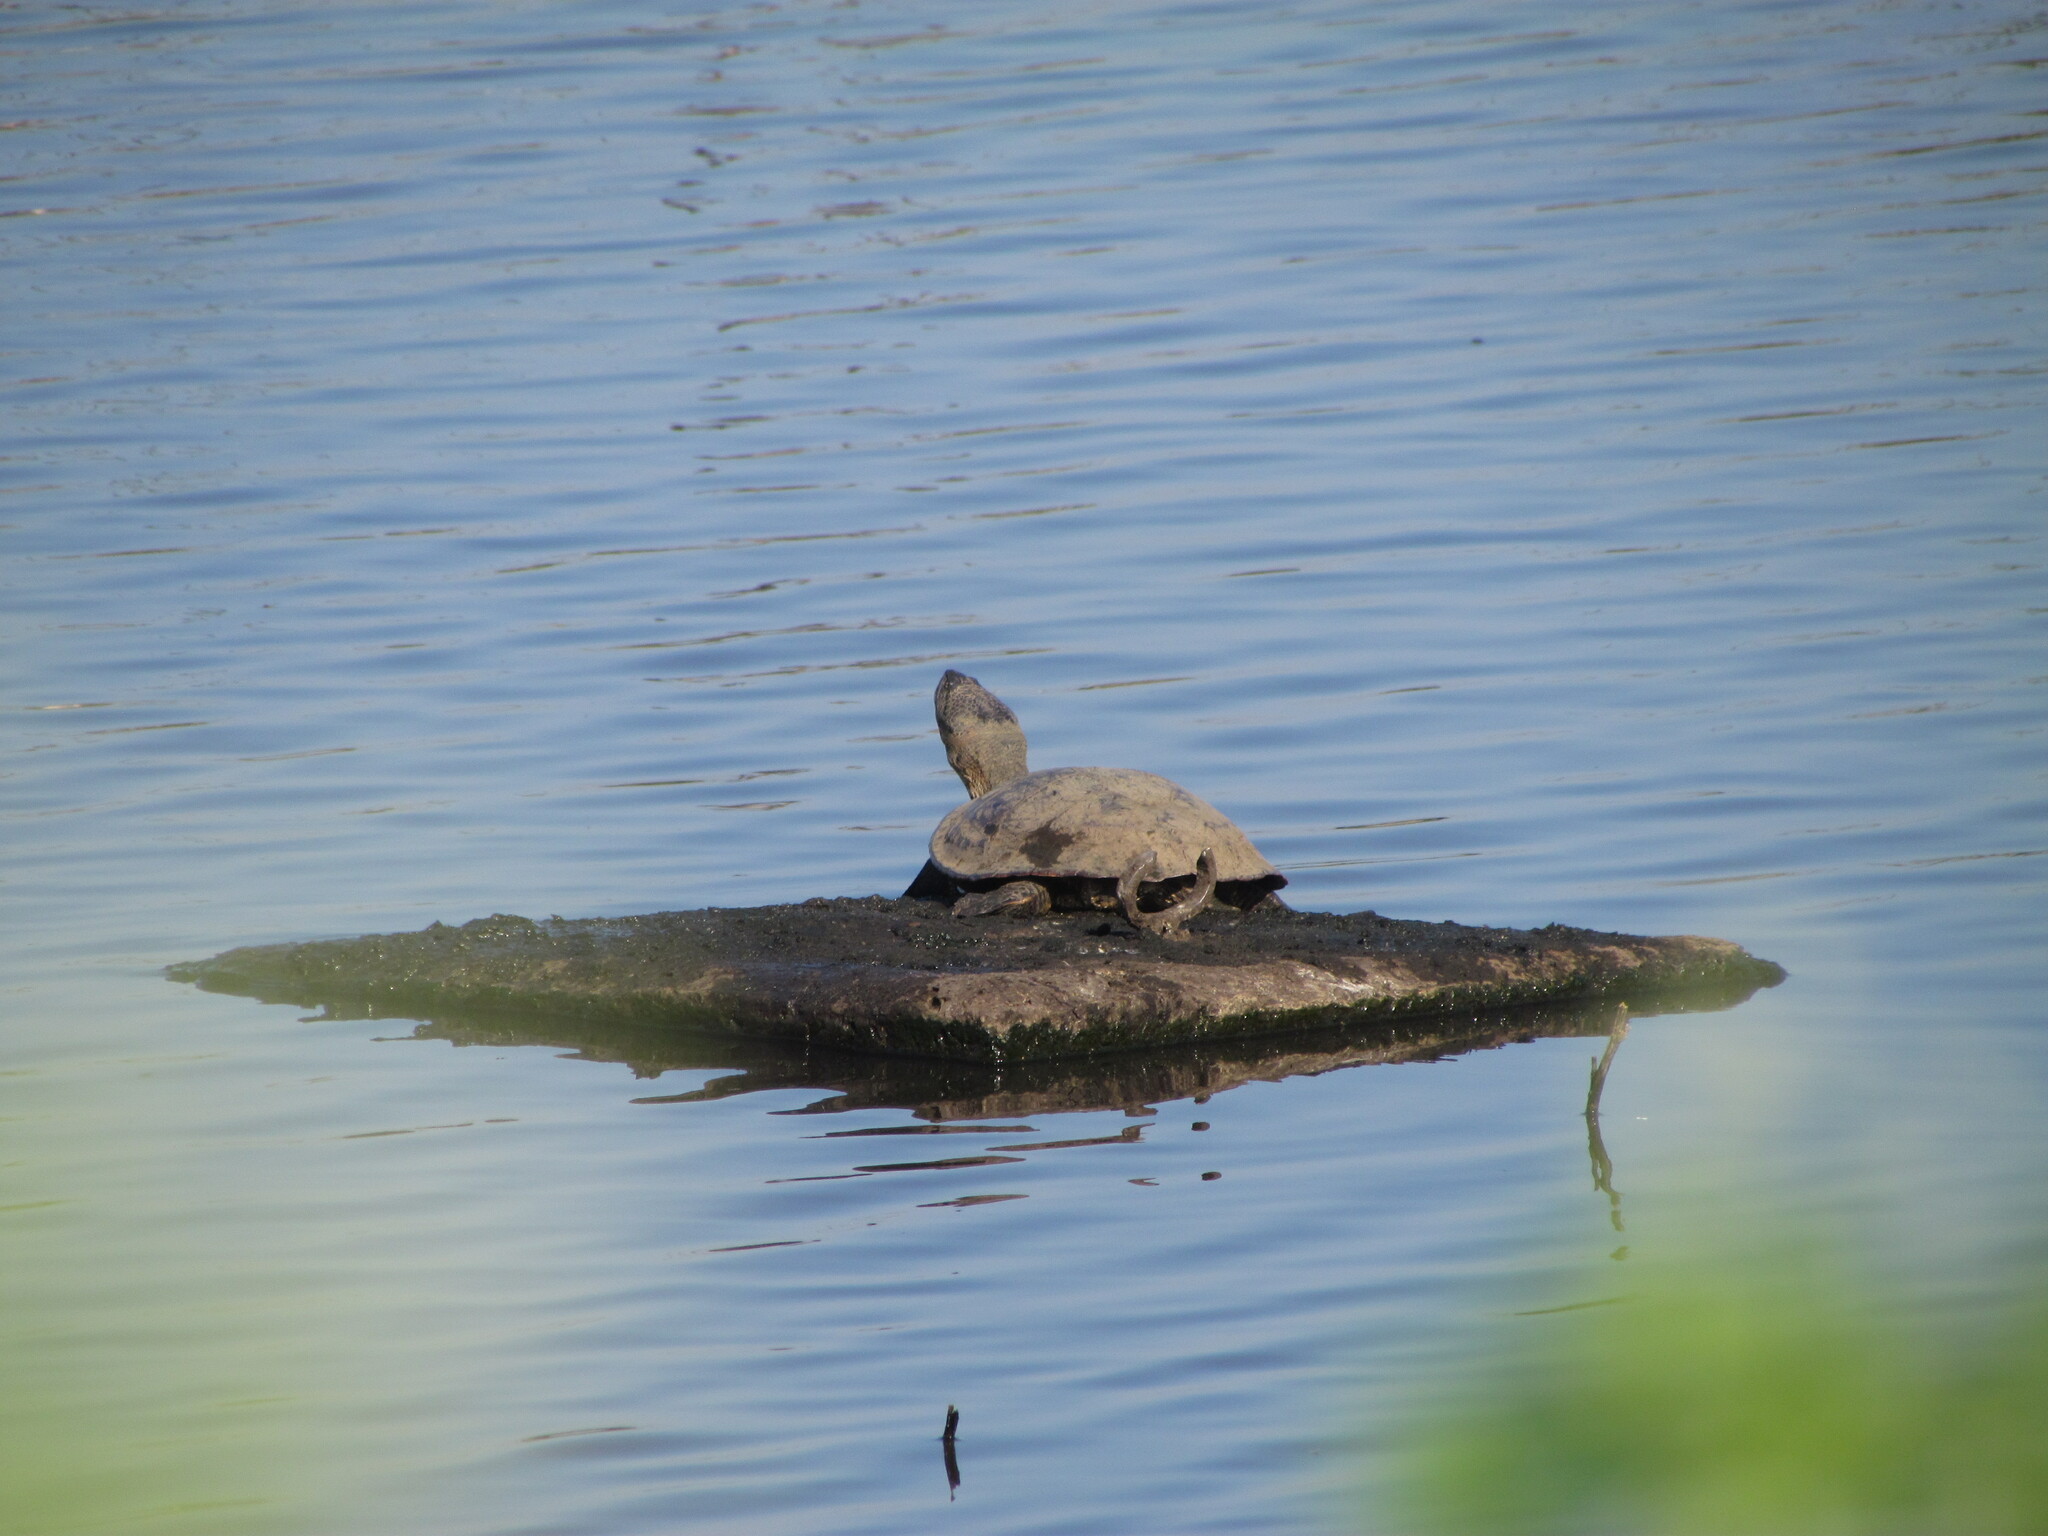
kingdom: Animalia
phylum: Chordata
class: Testudines
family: Chelidae
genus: Phrynops
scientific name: Phrynops hilarii
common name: Side-necked turtle of saint hillaire
